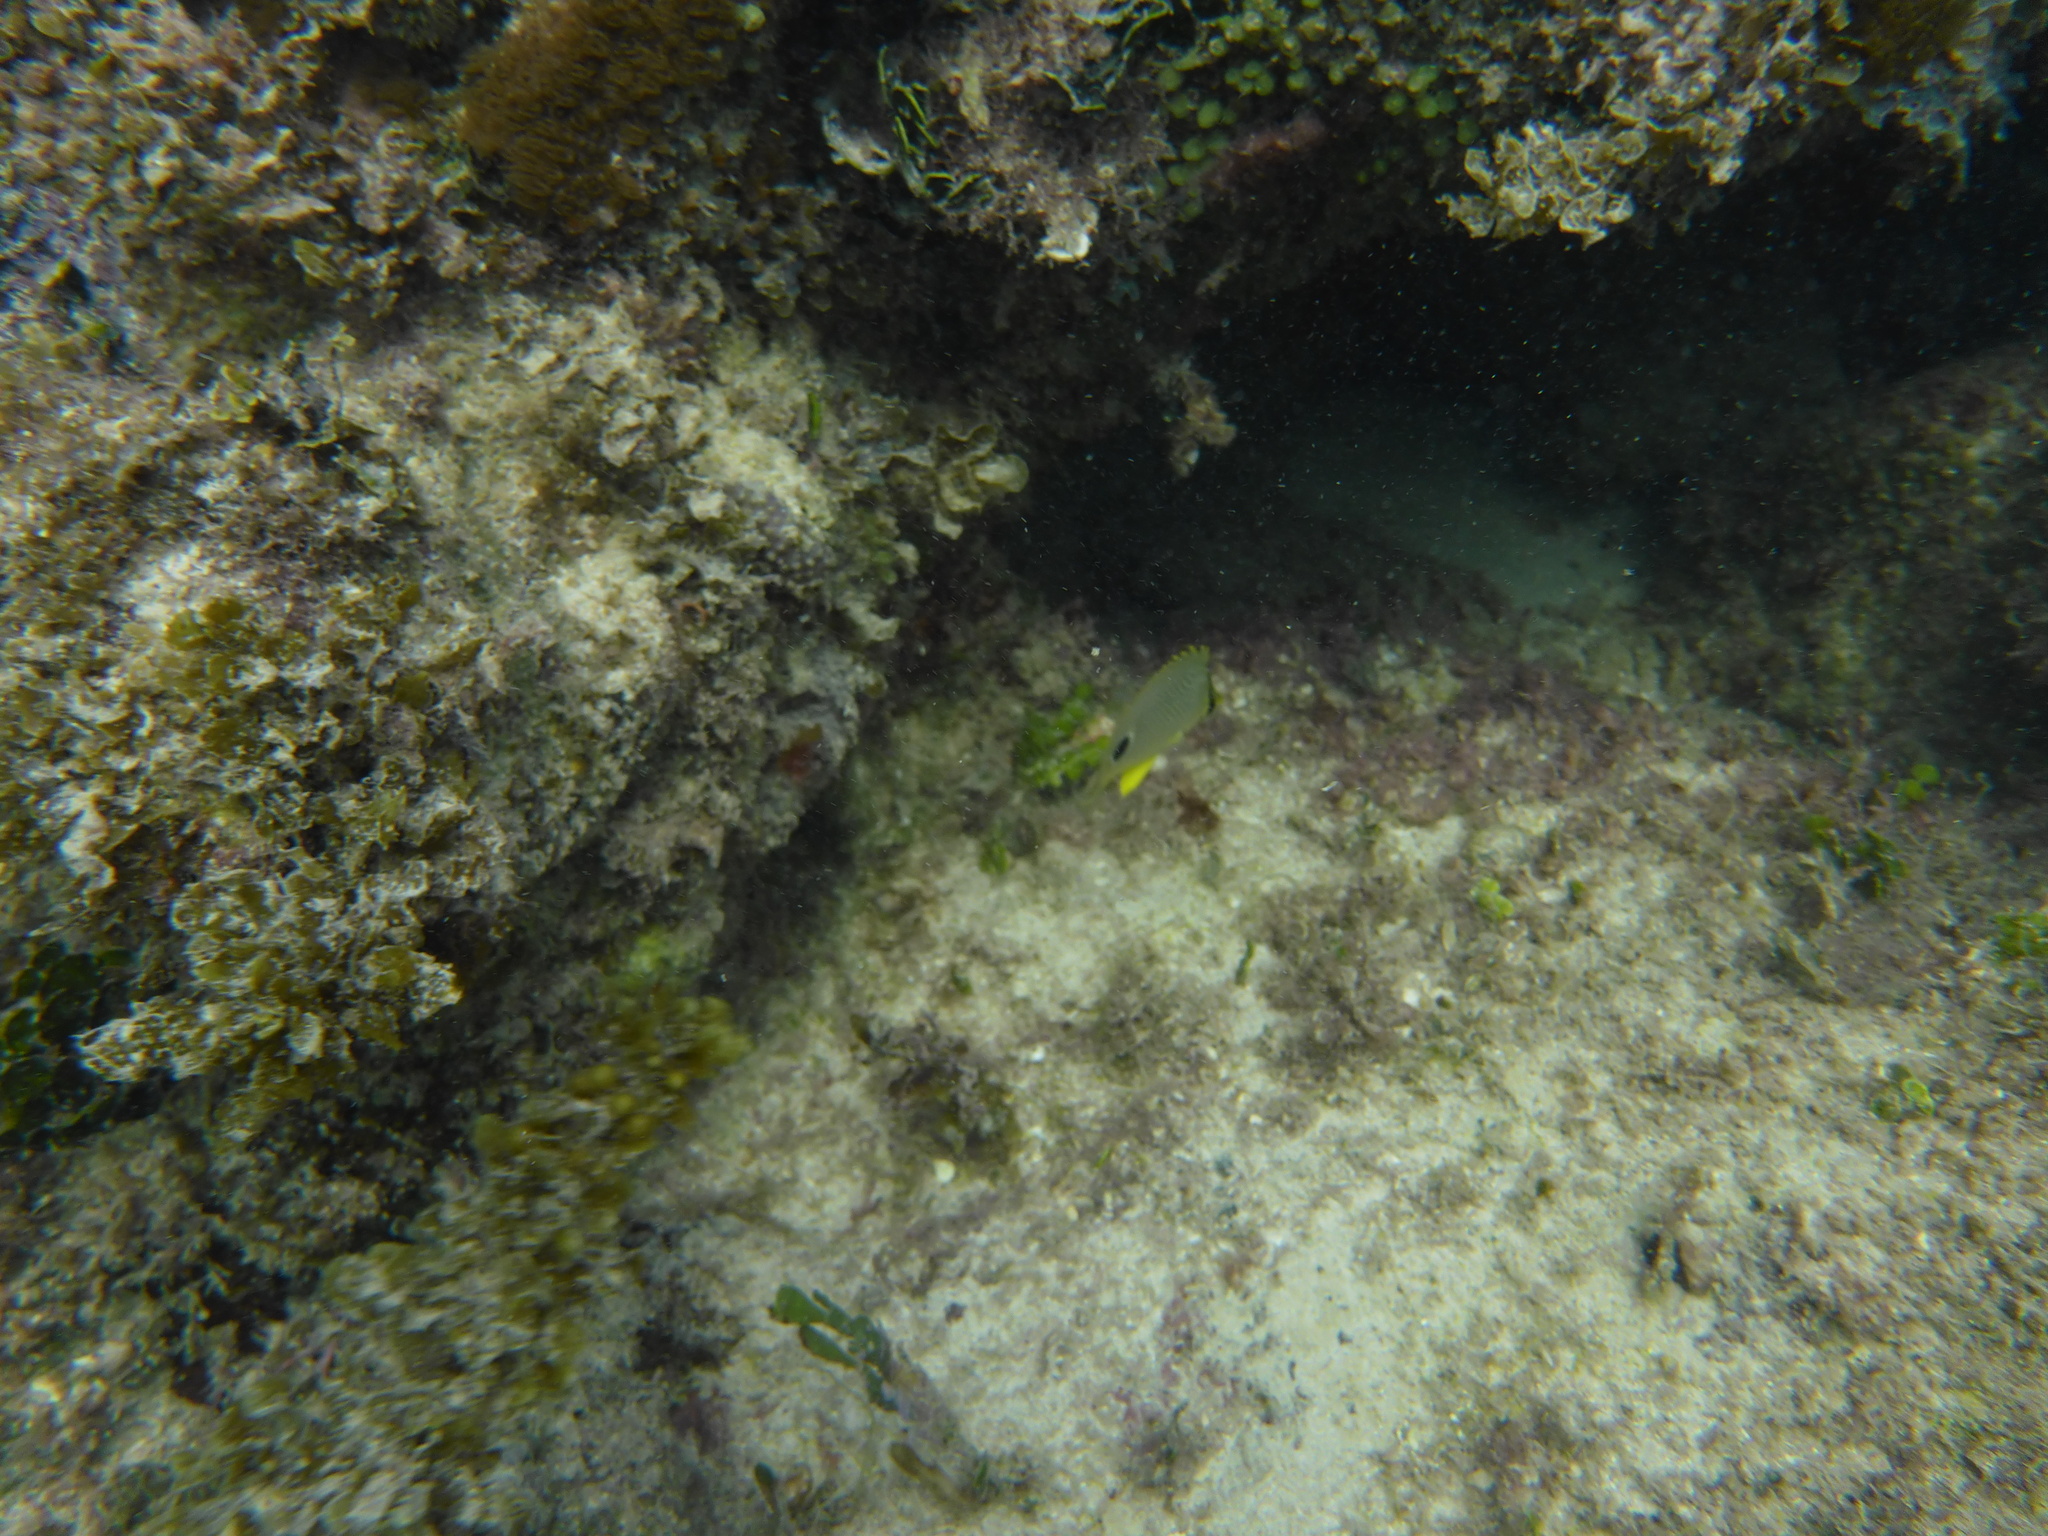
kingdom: Animalia
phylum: Chordata
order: Perciformes
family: Chaetodontidae
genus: Chaetodon
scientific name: Chaetodon capistratus
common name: Kete
